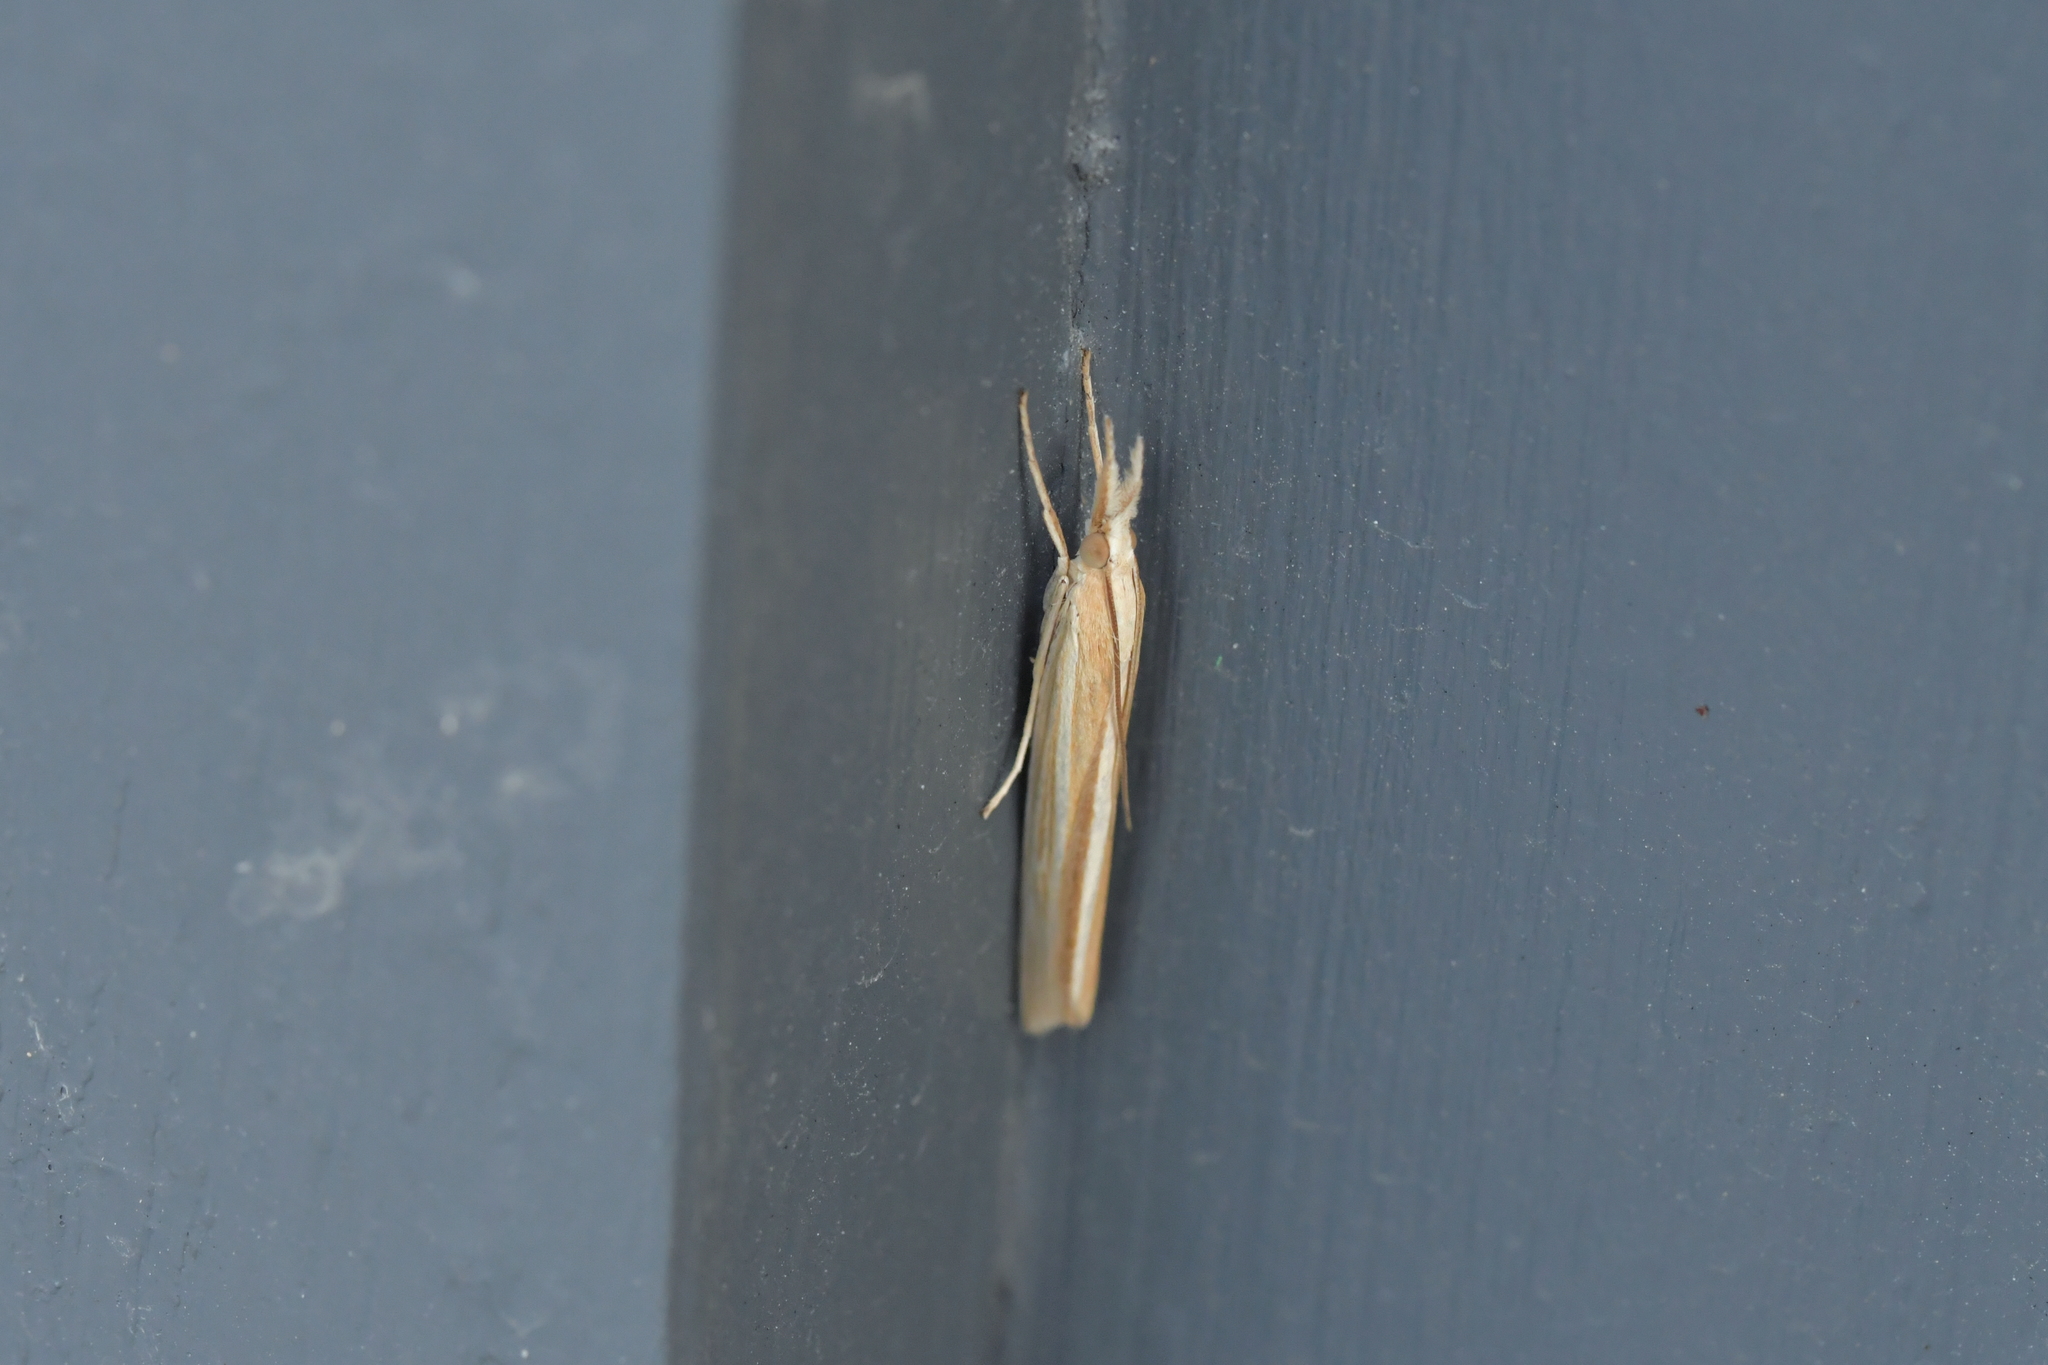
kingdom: Animalia
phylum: Arthropoda
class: Insecta
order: Lepidoptera
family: Crambidae
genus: Orocrambus
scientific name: Orocrambus angustipennis
